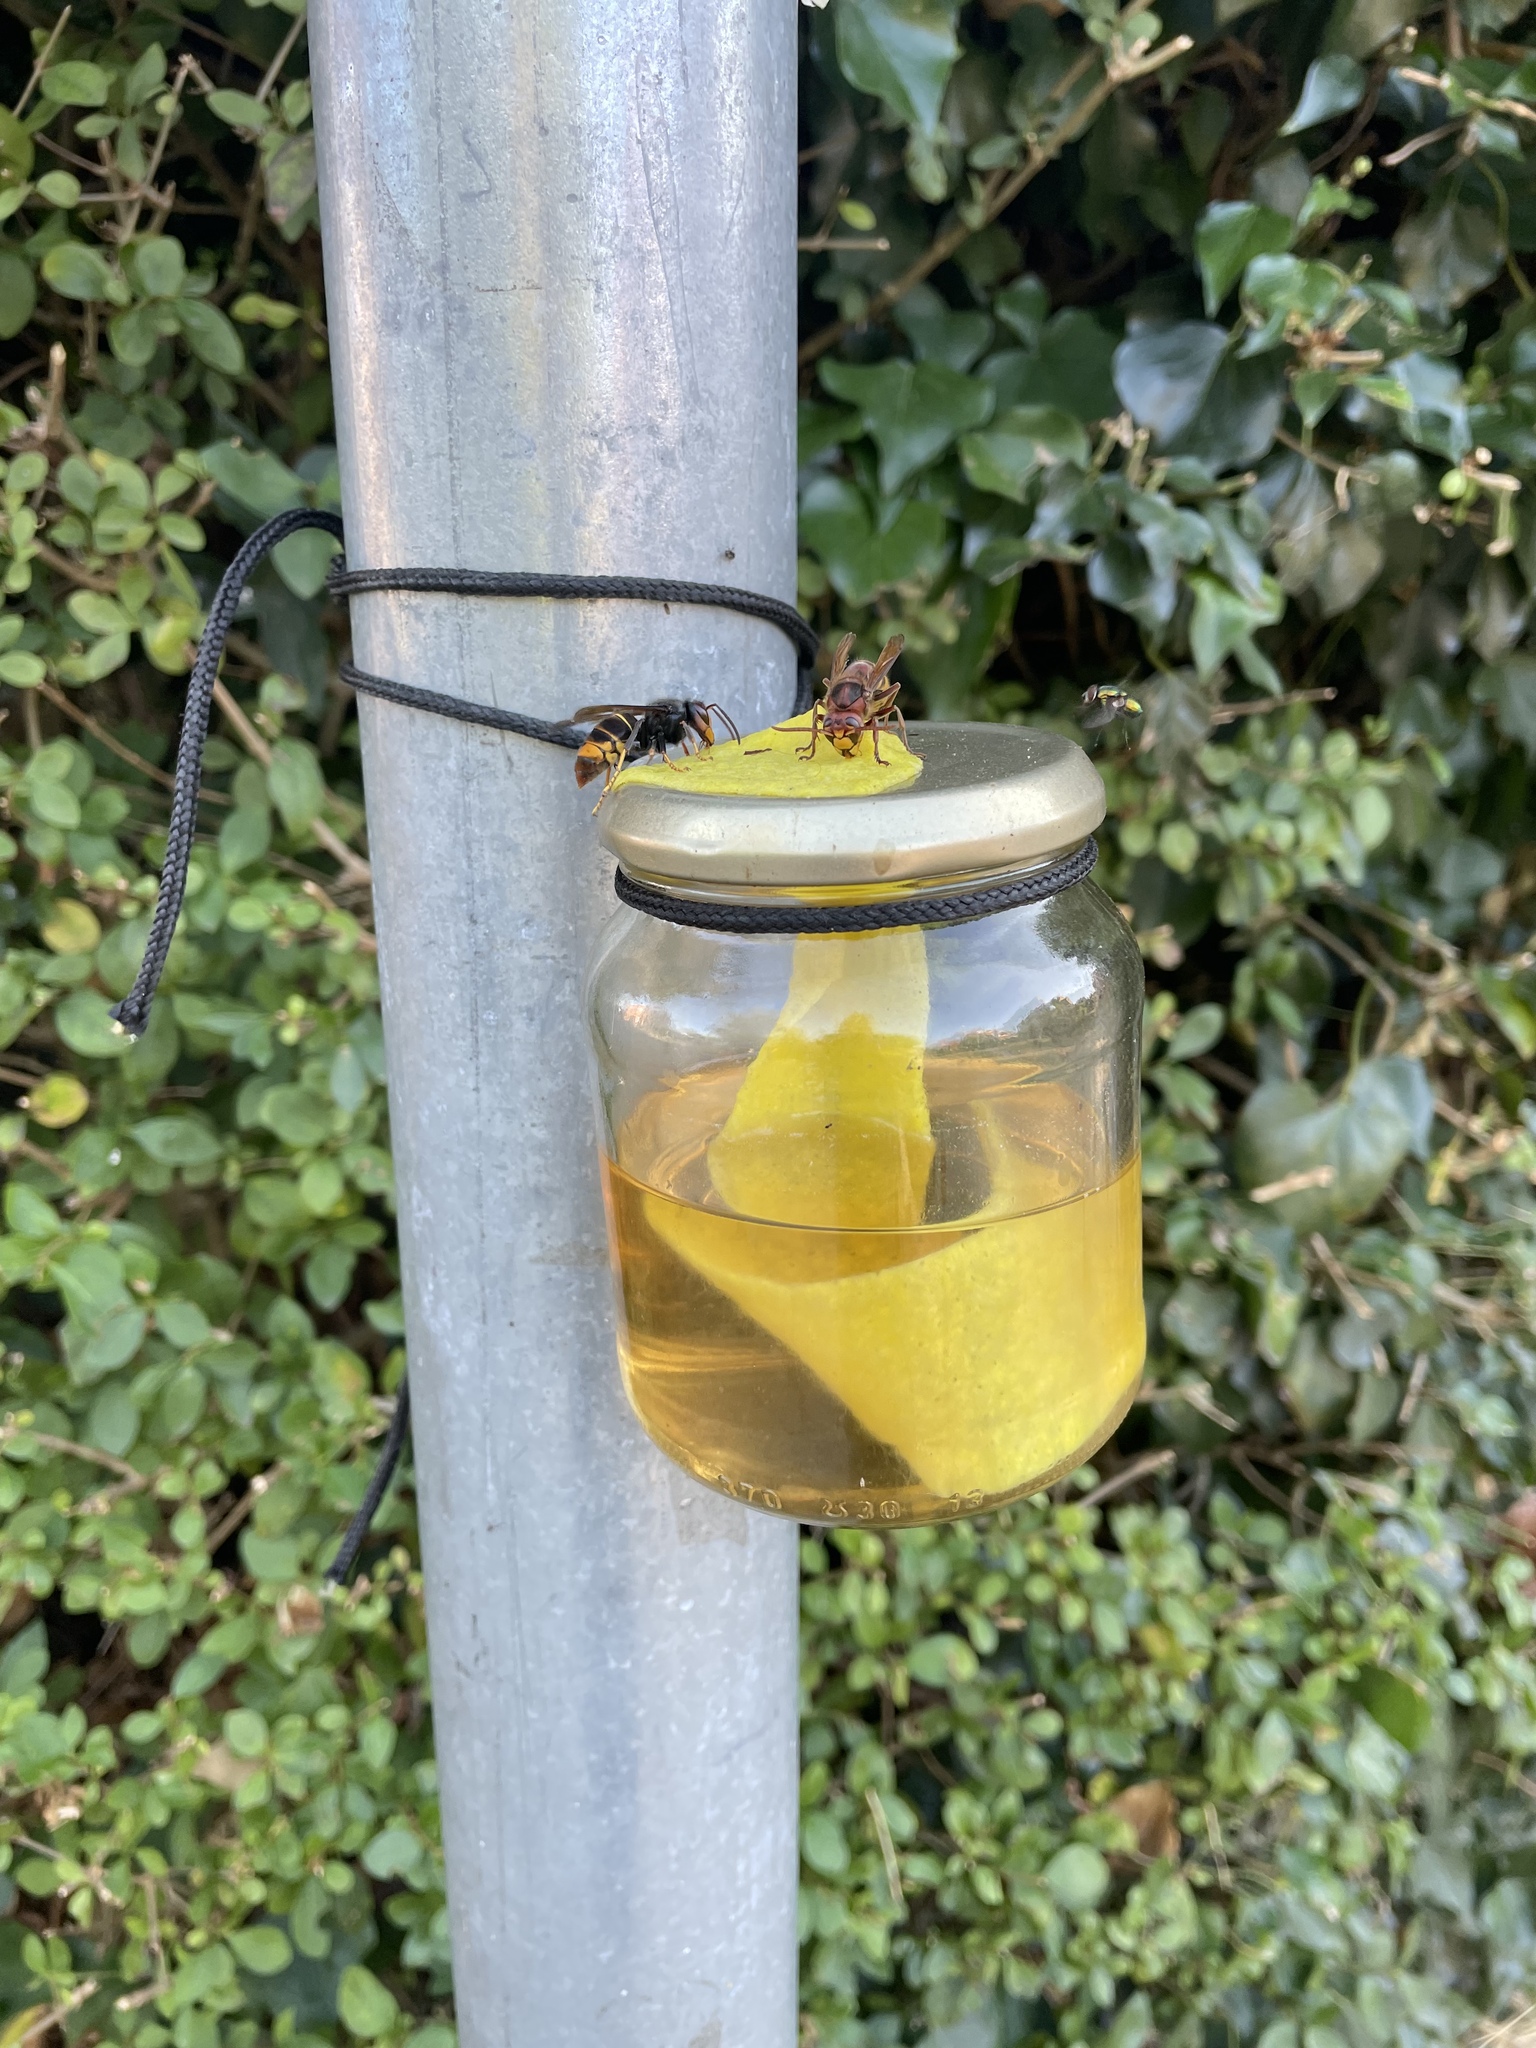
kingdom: Animalia
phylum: Arthropoda
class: Insecta
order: Hymenoptera
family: Vespidae
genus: Vespa
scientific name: Vespa velutina
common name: Asian hornet
